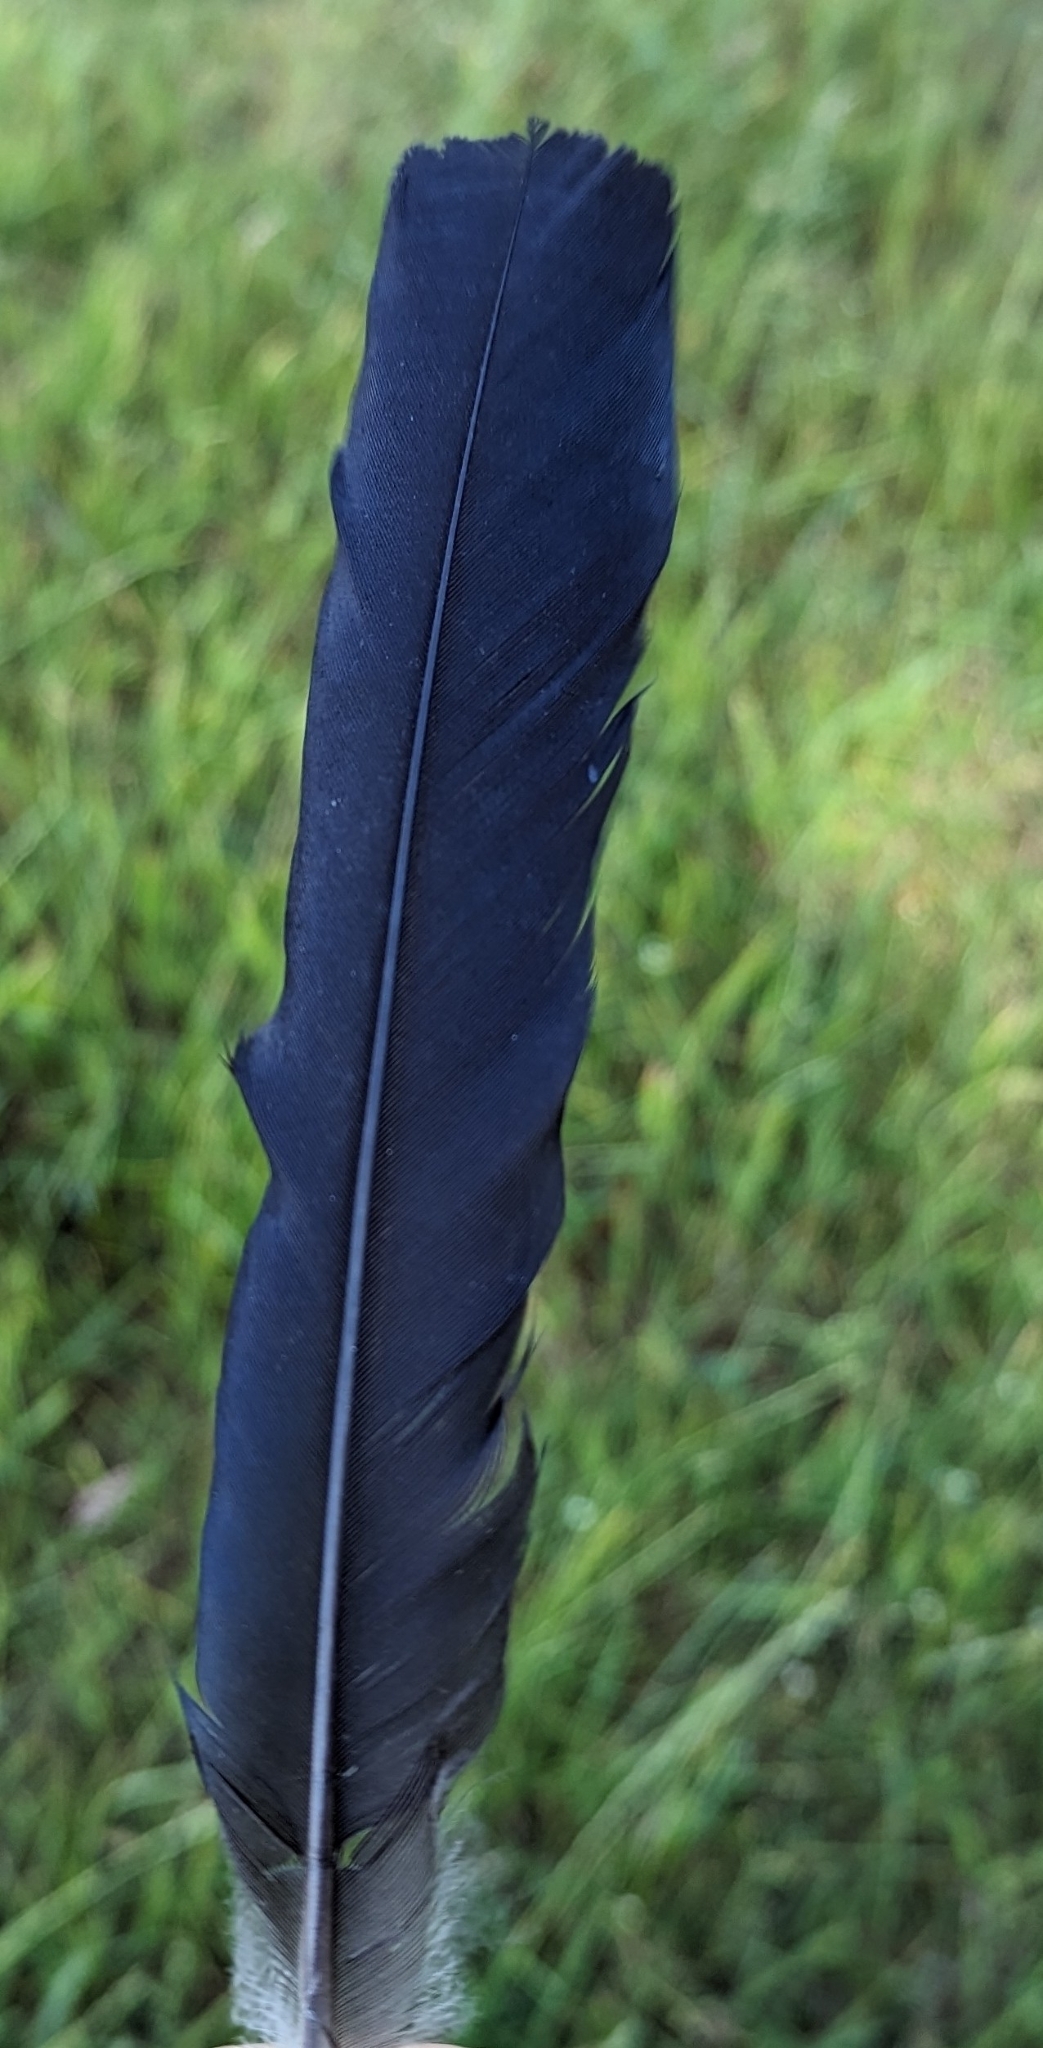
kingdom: Animalia
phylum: Chordata
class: Aves
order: Passeriformes
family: Corvidae
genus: Pica
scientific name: Pica pica
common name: Eurasian magpie
